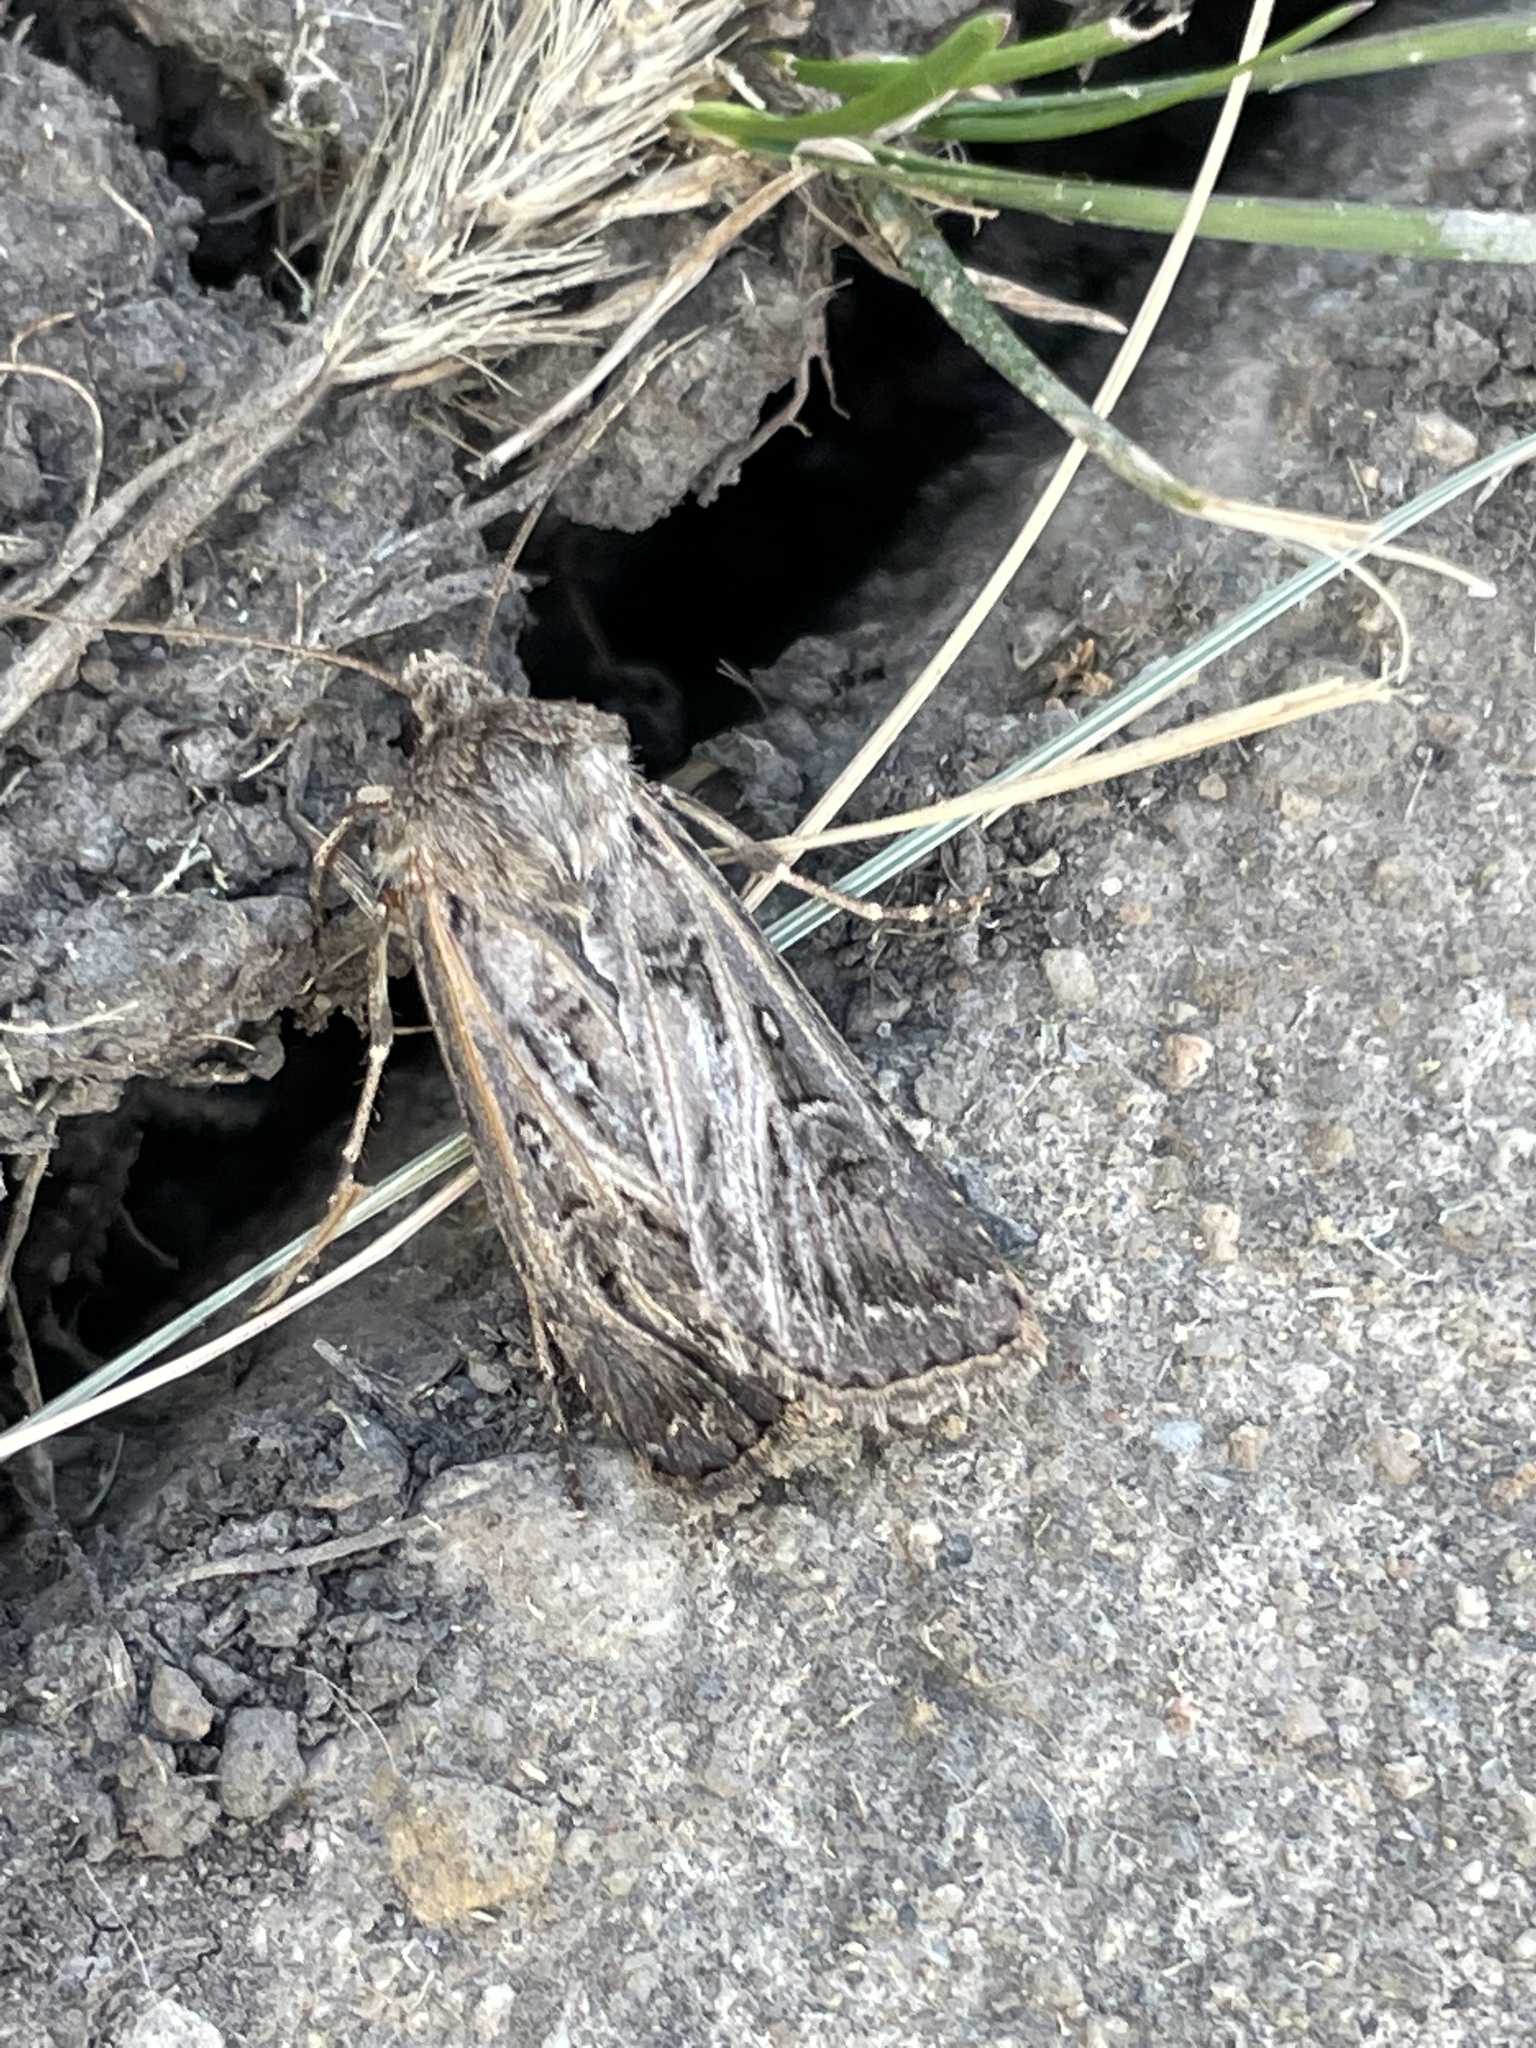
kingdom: Animalia
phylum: Arthropoda
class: Insecta
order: Lepidoptera
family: Noctuidae
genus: Agrotis
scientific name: Agrotis gladiaria
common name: Claybacked cutworm
